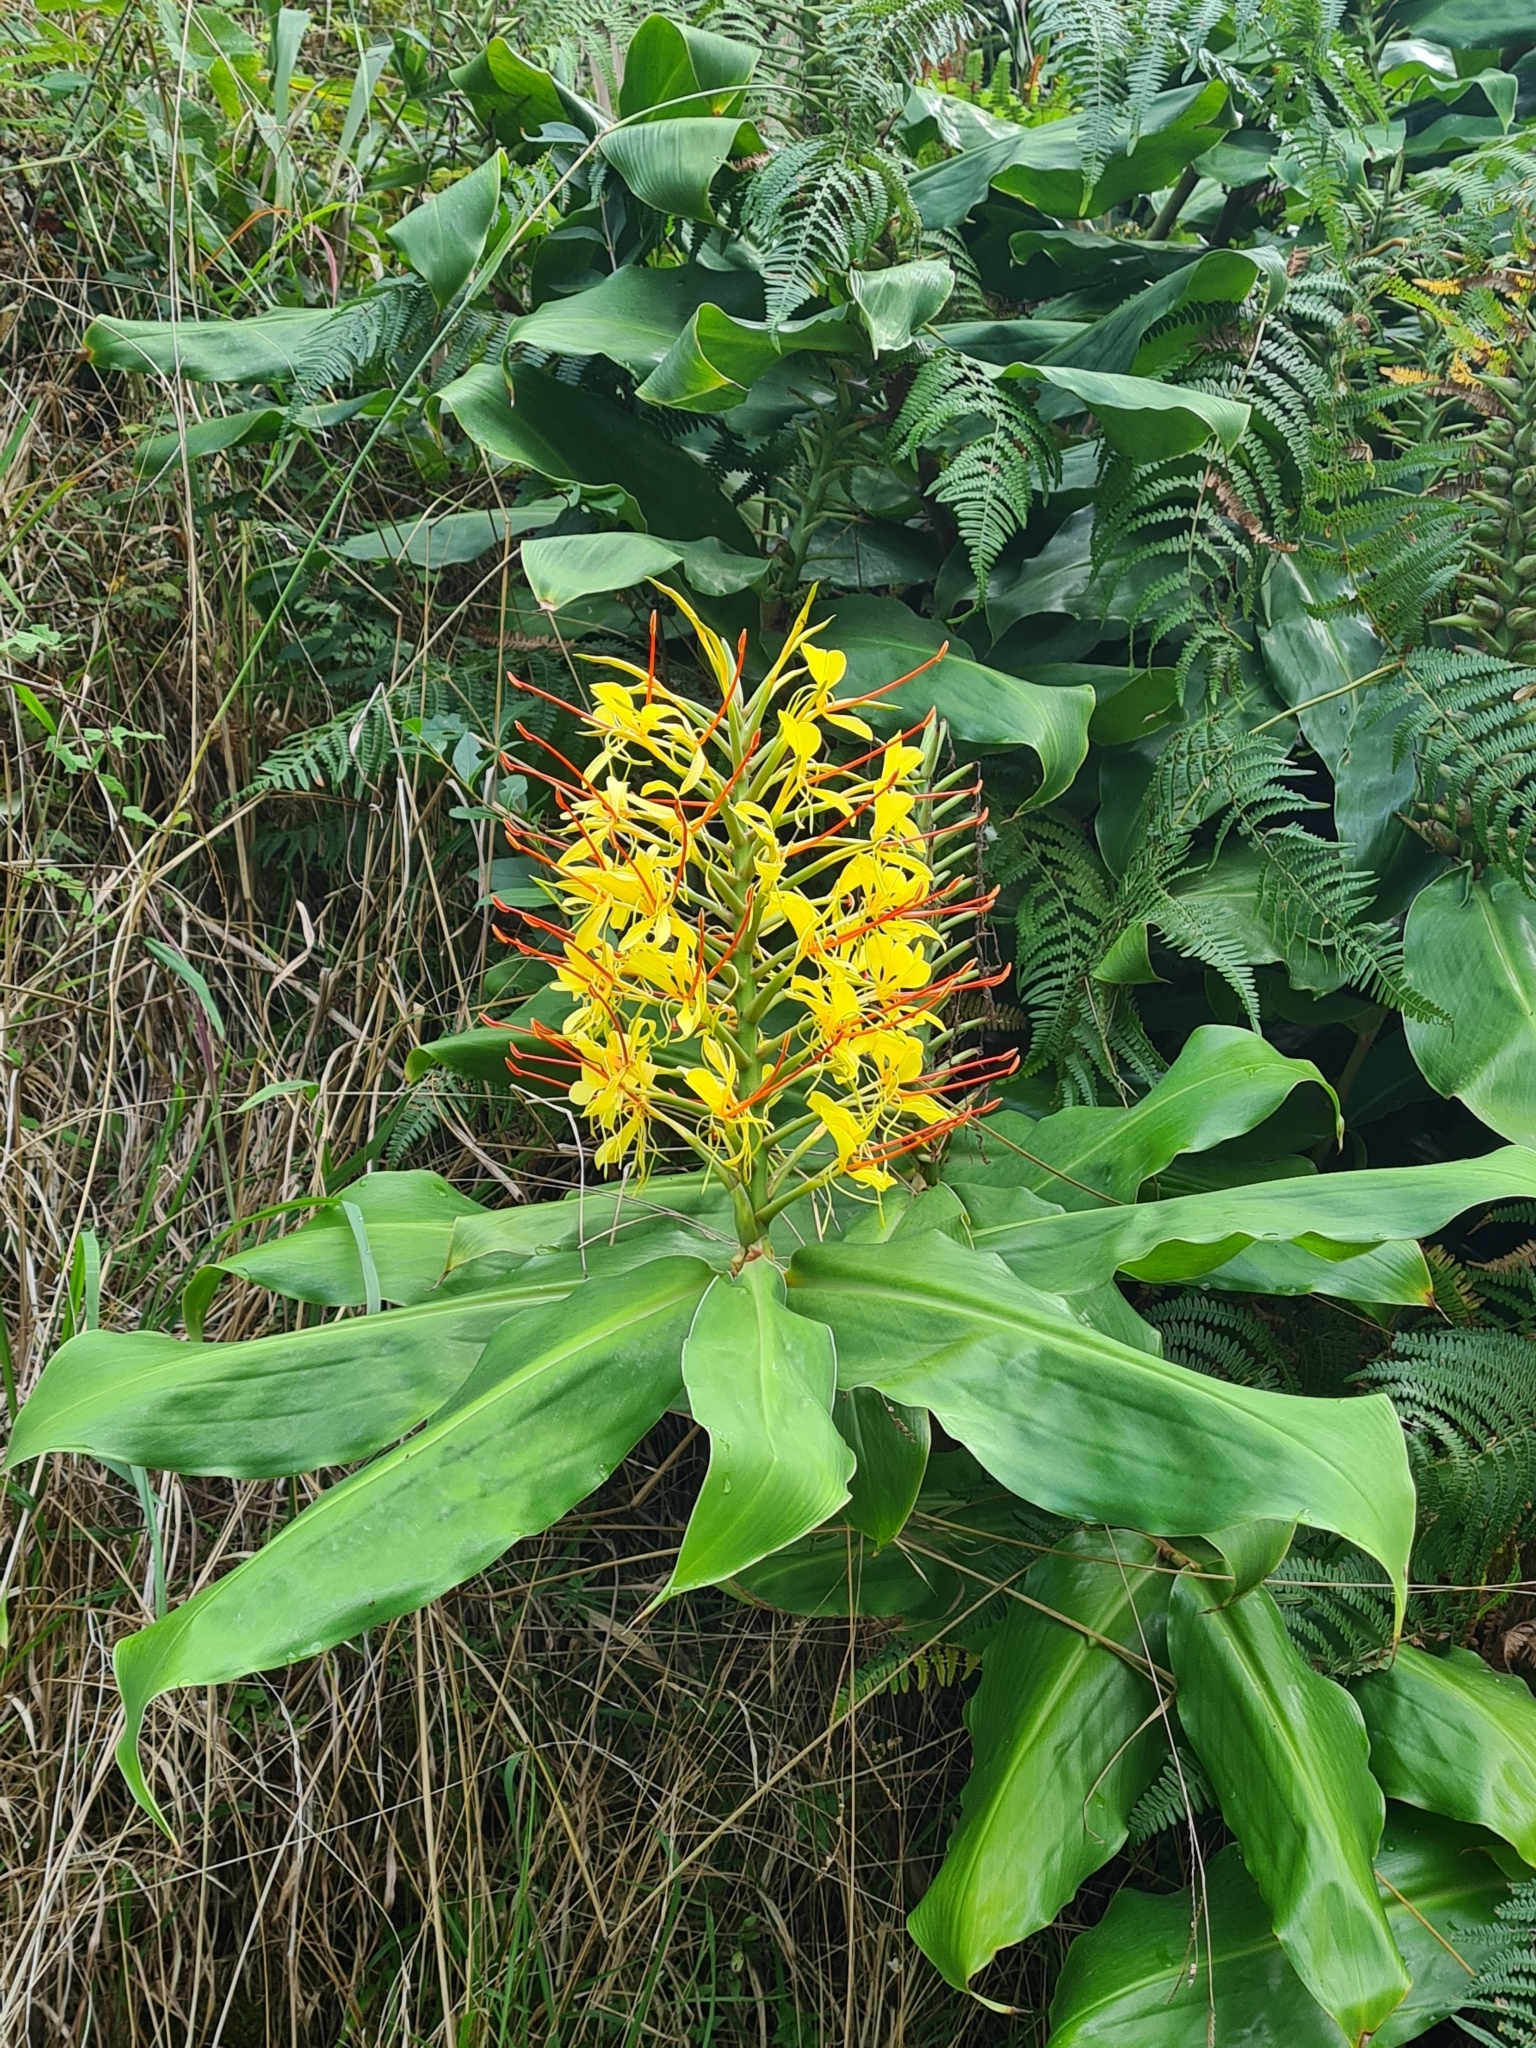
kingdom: Plantae
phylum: Tracheophyta
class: Liliopsida
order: Zingiberales
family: Zingiberaceae
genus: Hedychium
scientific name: Hedychium gardnerianum
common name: Himalayan ginger
